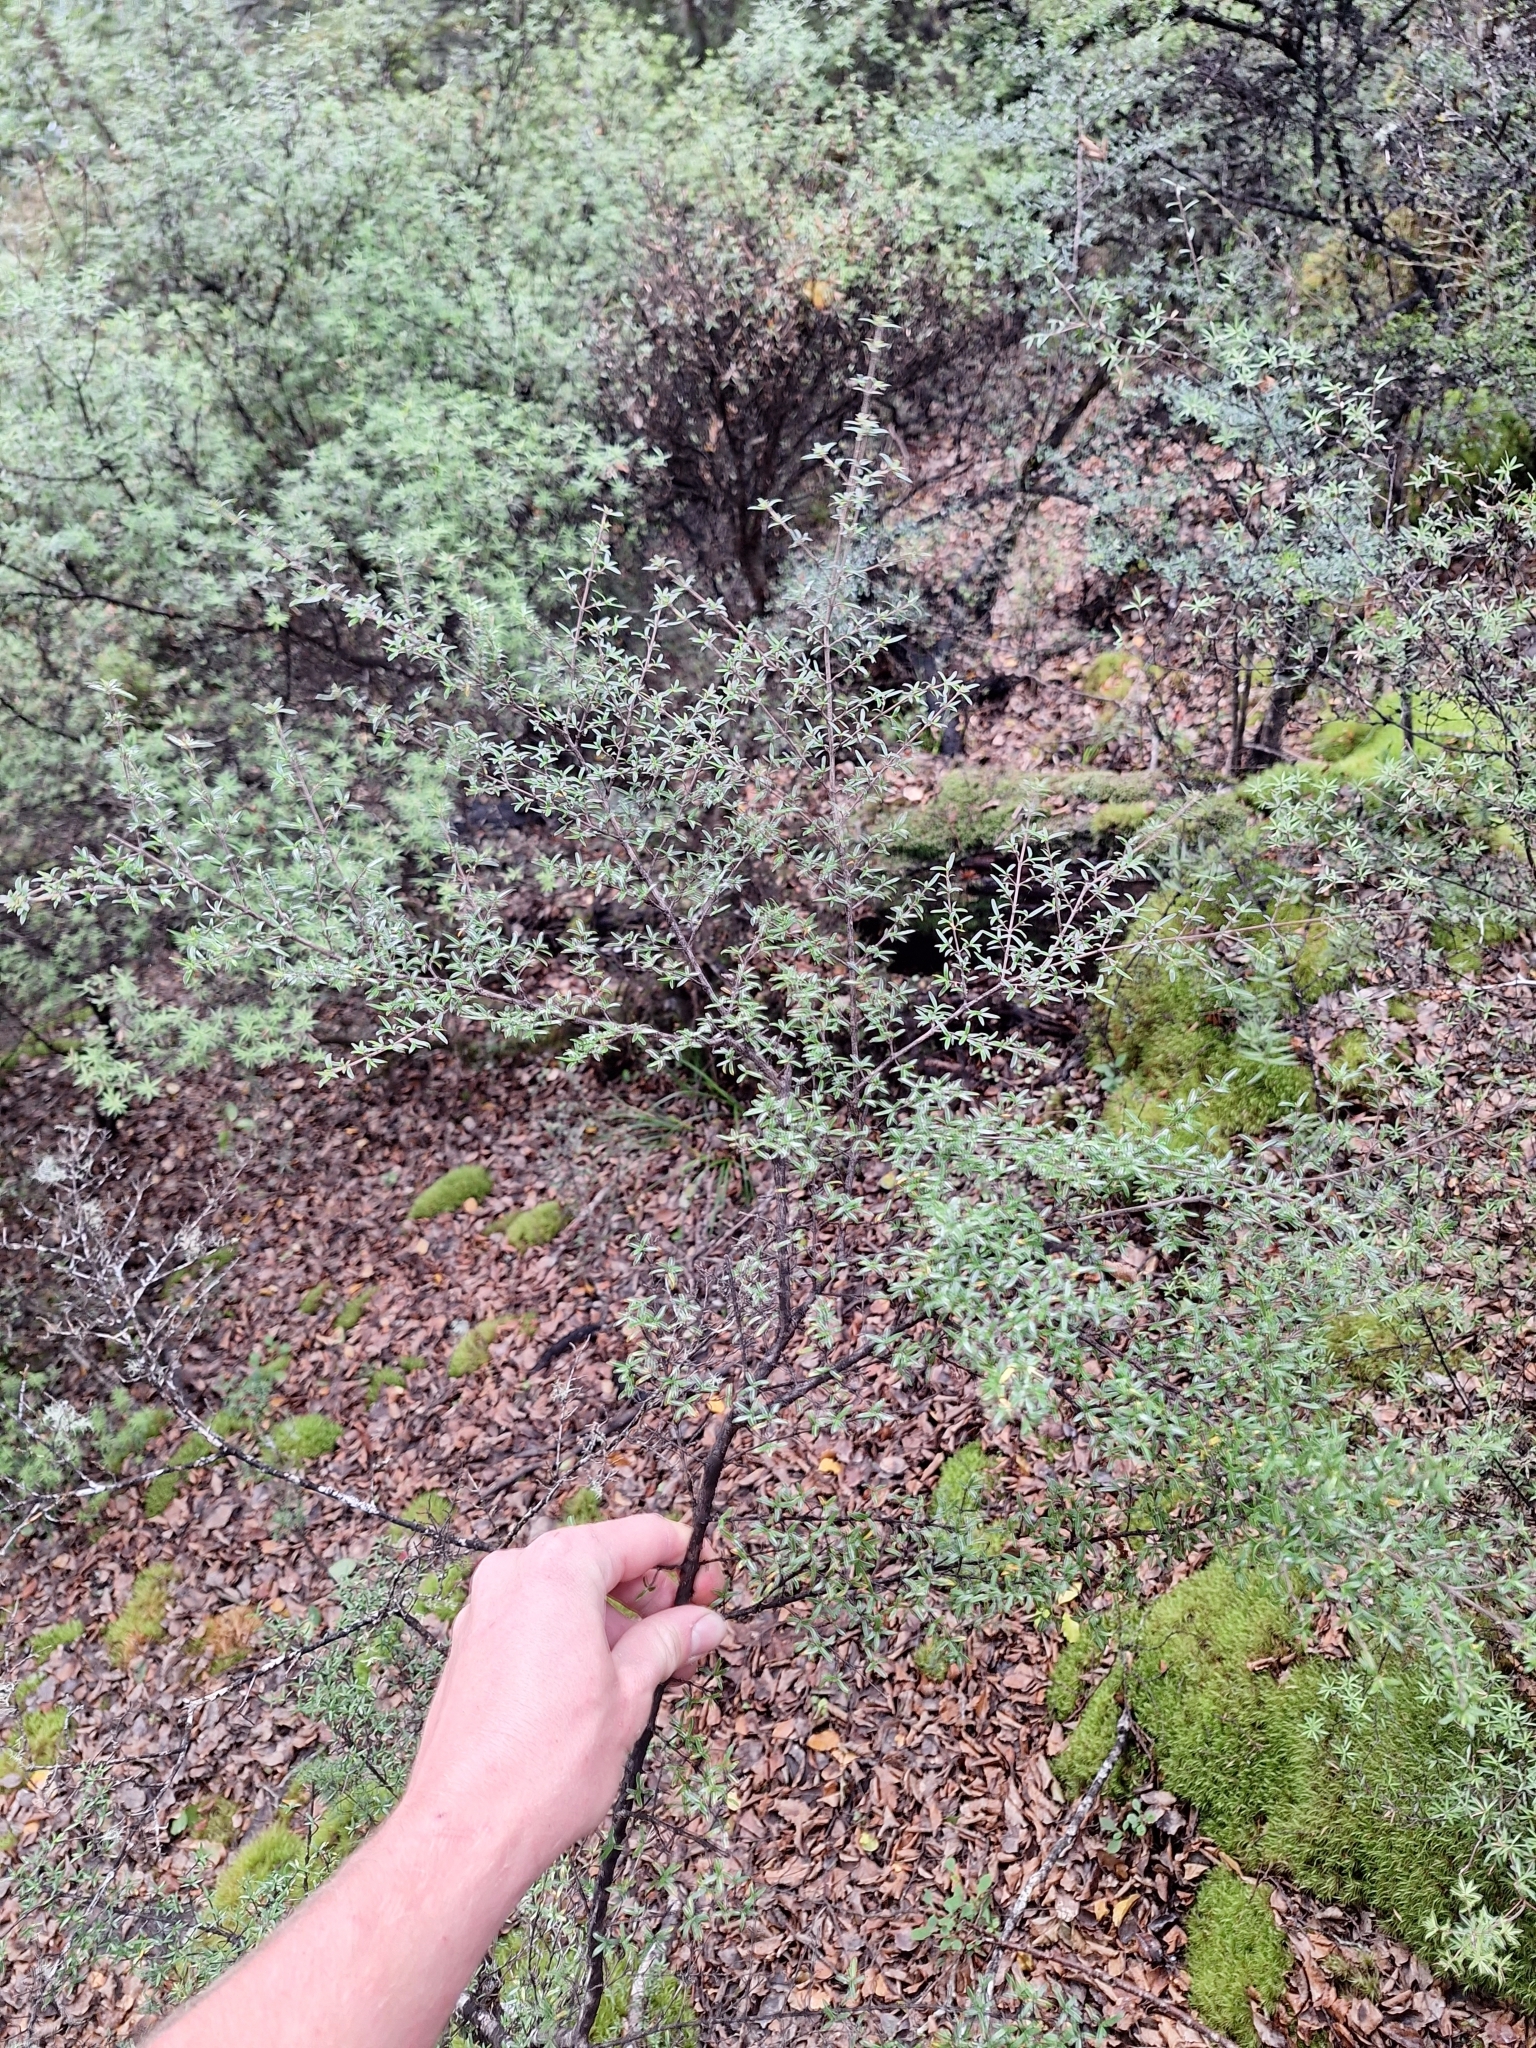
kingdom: Plantae
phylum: Tracheophyta
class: Magnoliopsida
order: Gentianales
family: Rubiaceae
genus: Coprosma
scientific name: Coprosma microcarpa
